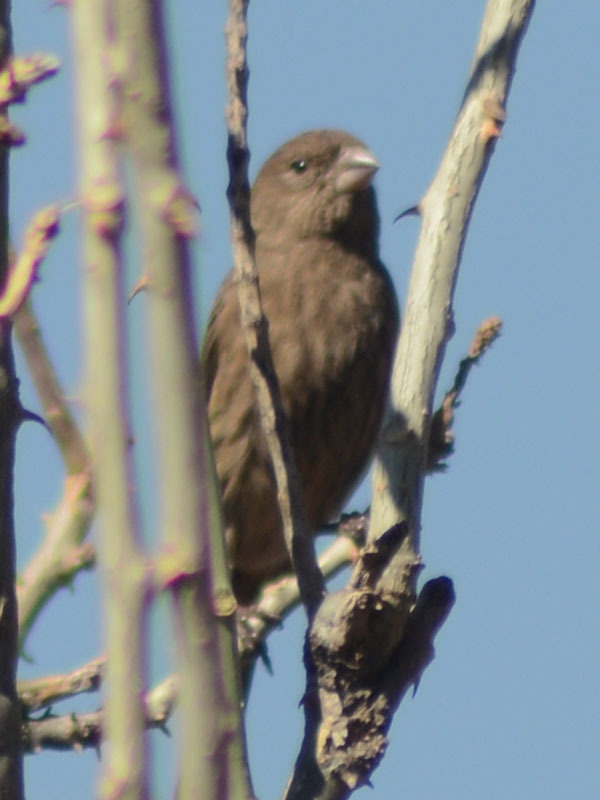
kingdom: Animalia
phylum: Chordata
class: Aves
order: Passeriformes
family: Fringillidae
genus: Haemorhous
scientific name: Haemorhous mexicanus
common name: House finch
